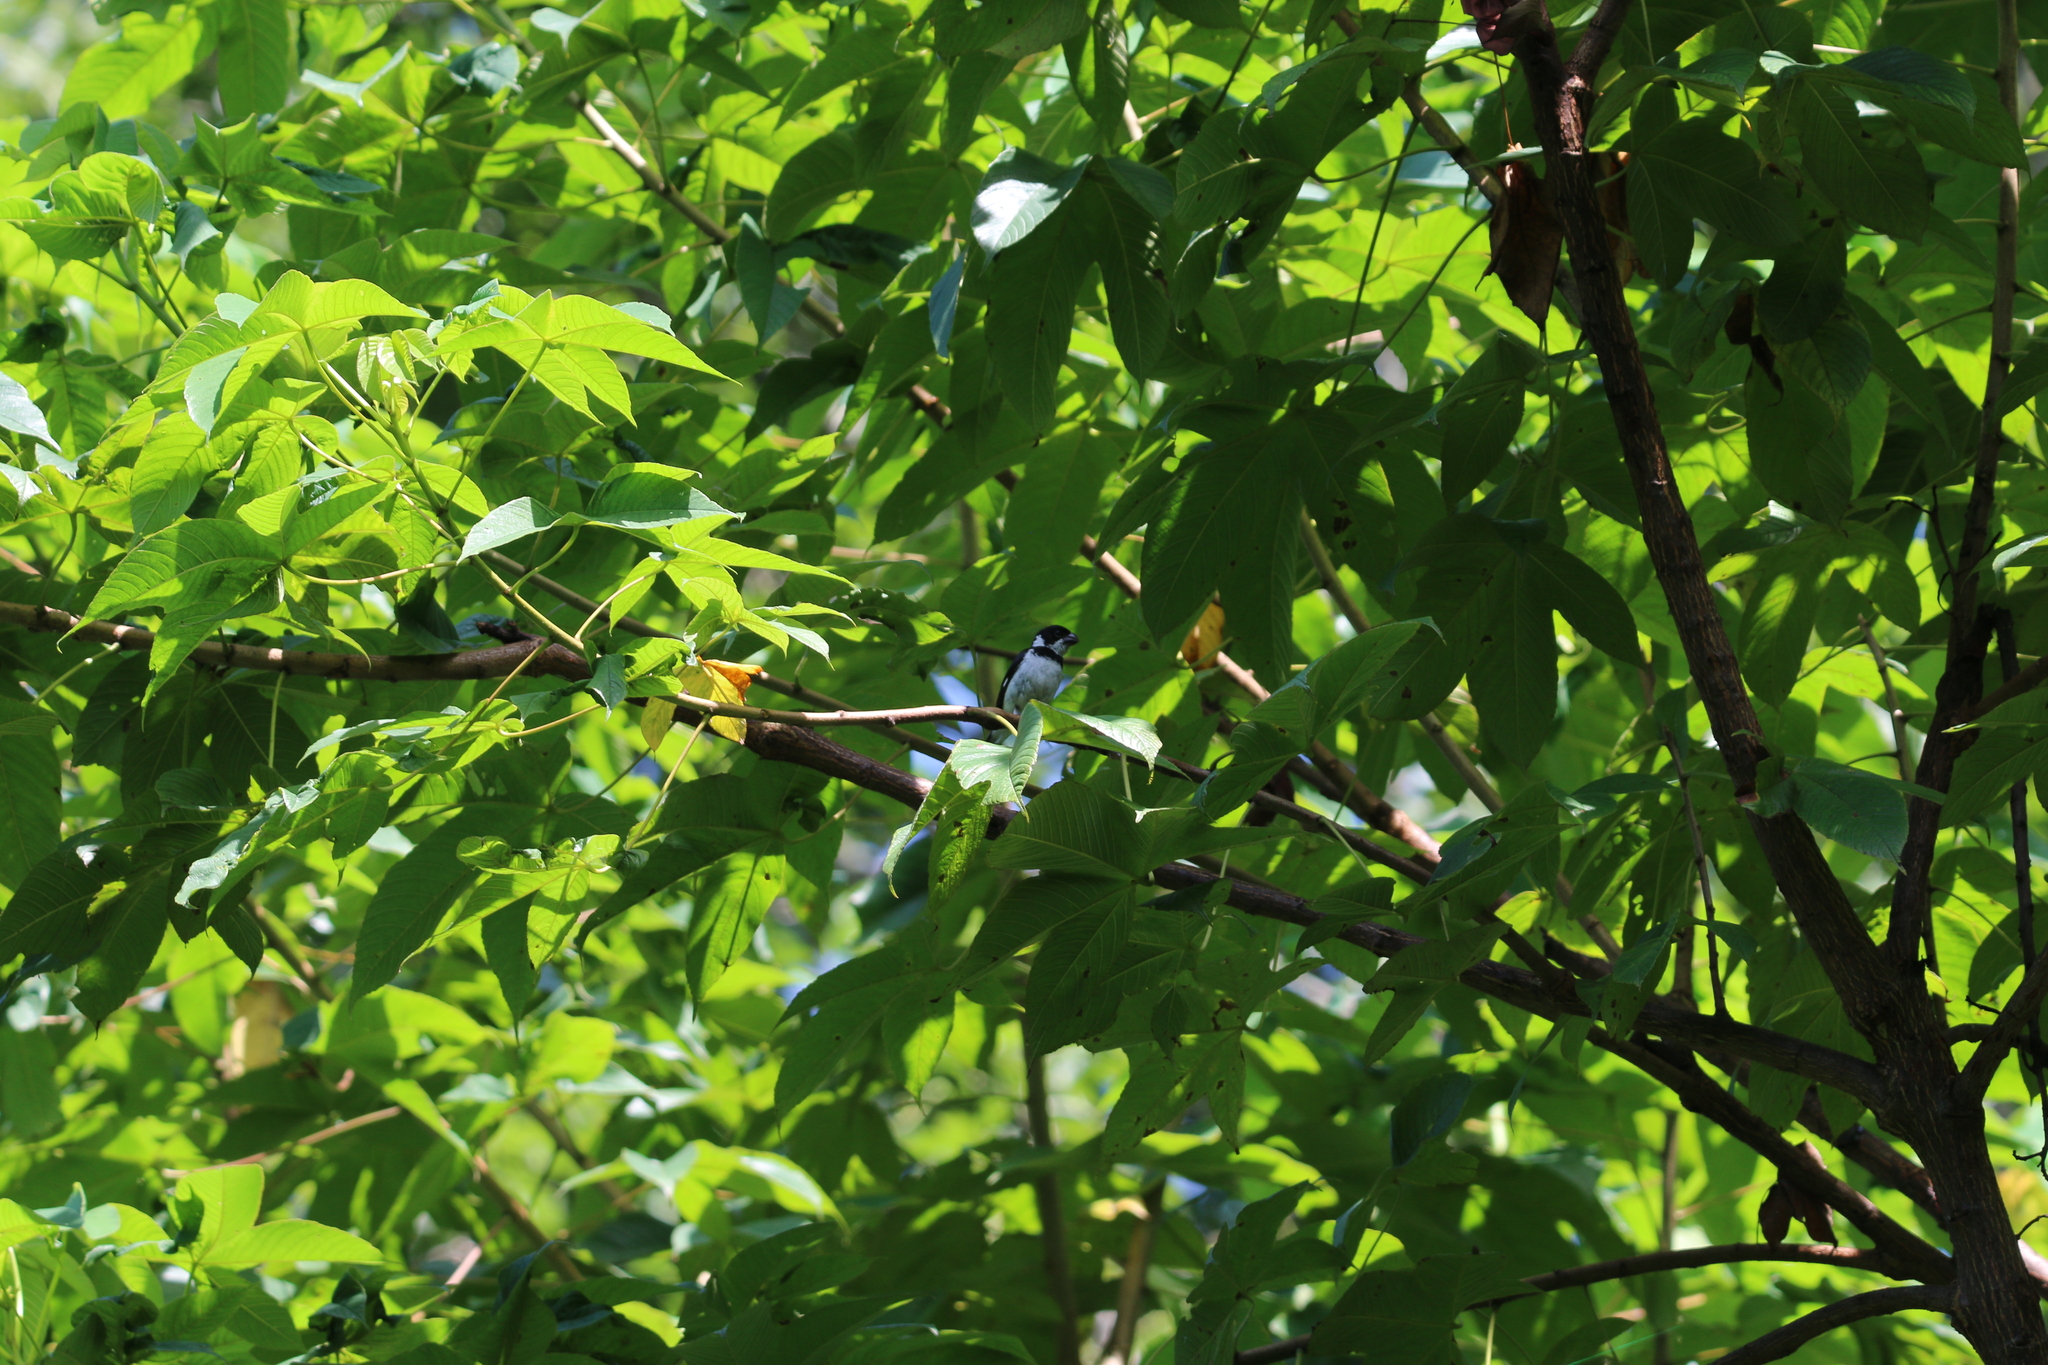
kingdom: Animalia
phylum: Chordata
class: Aves
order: Passeriformes
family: Thraupidae
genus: Sporophila
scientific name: Sporophila corvina
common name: Variable seedeater
